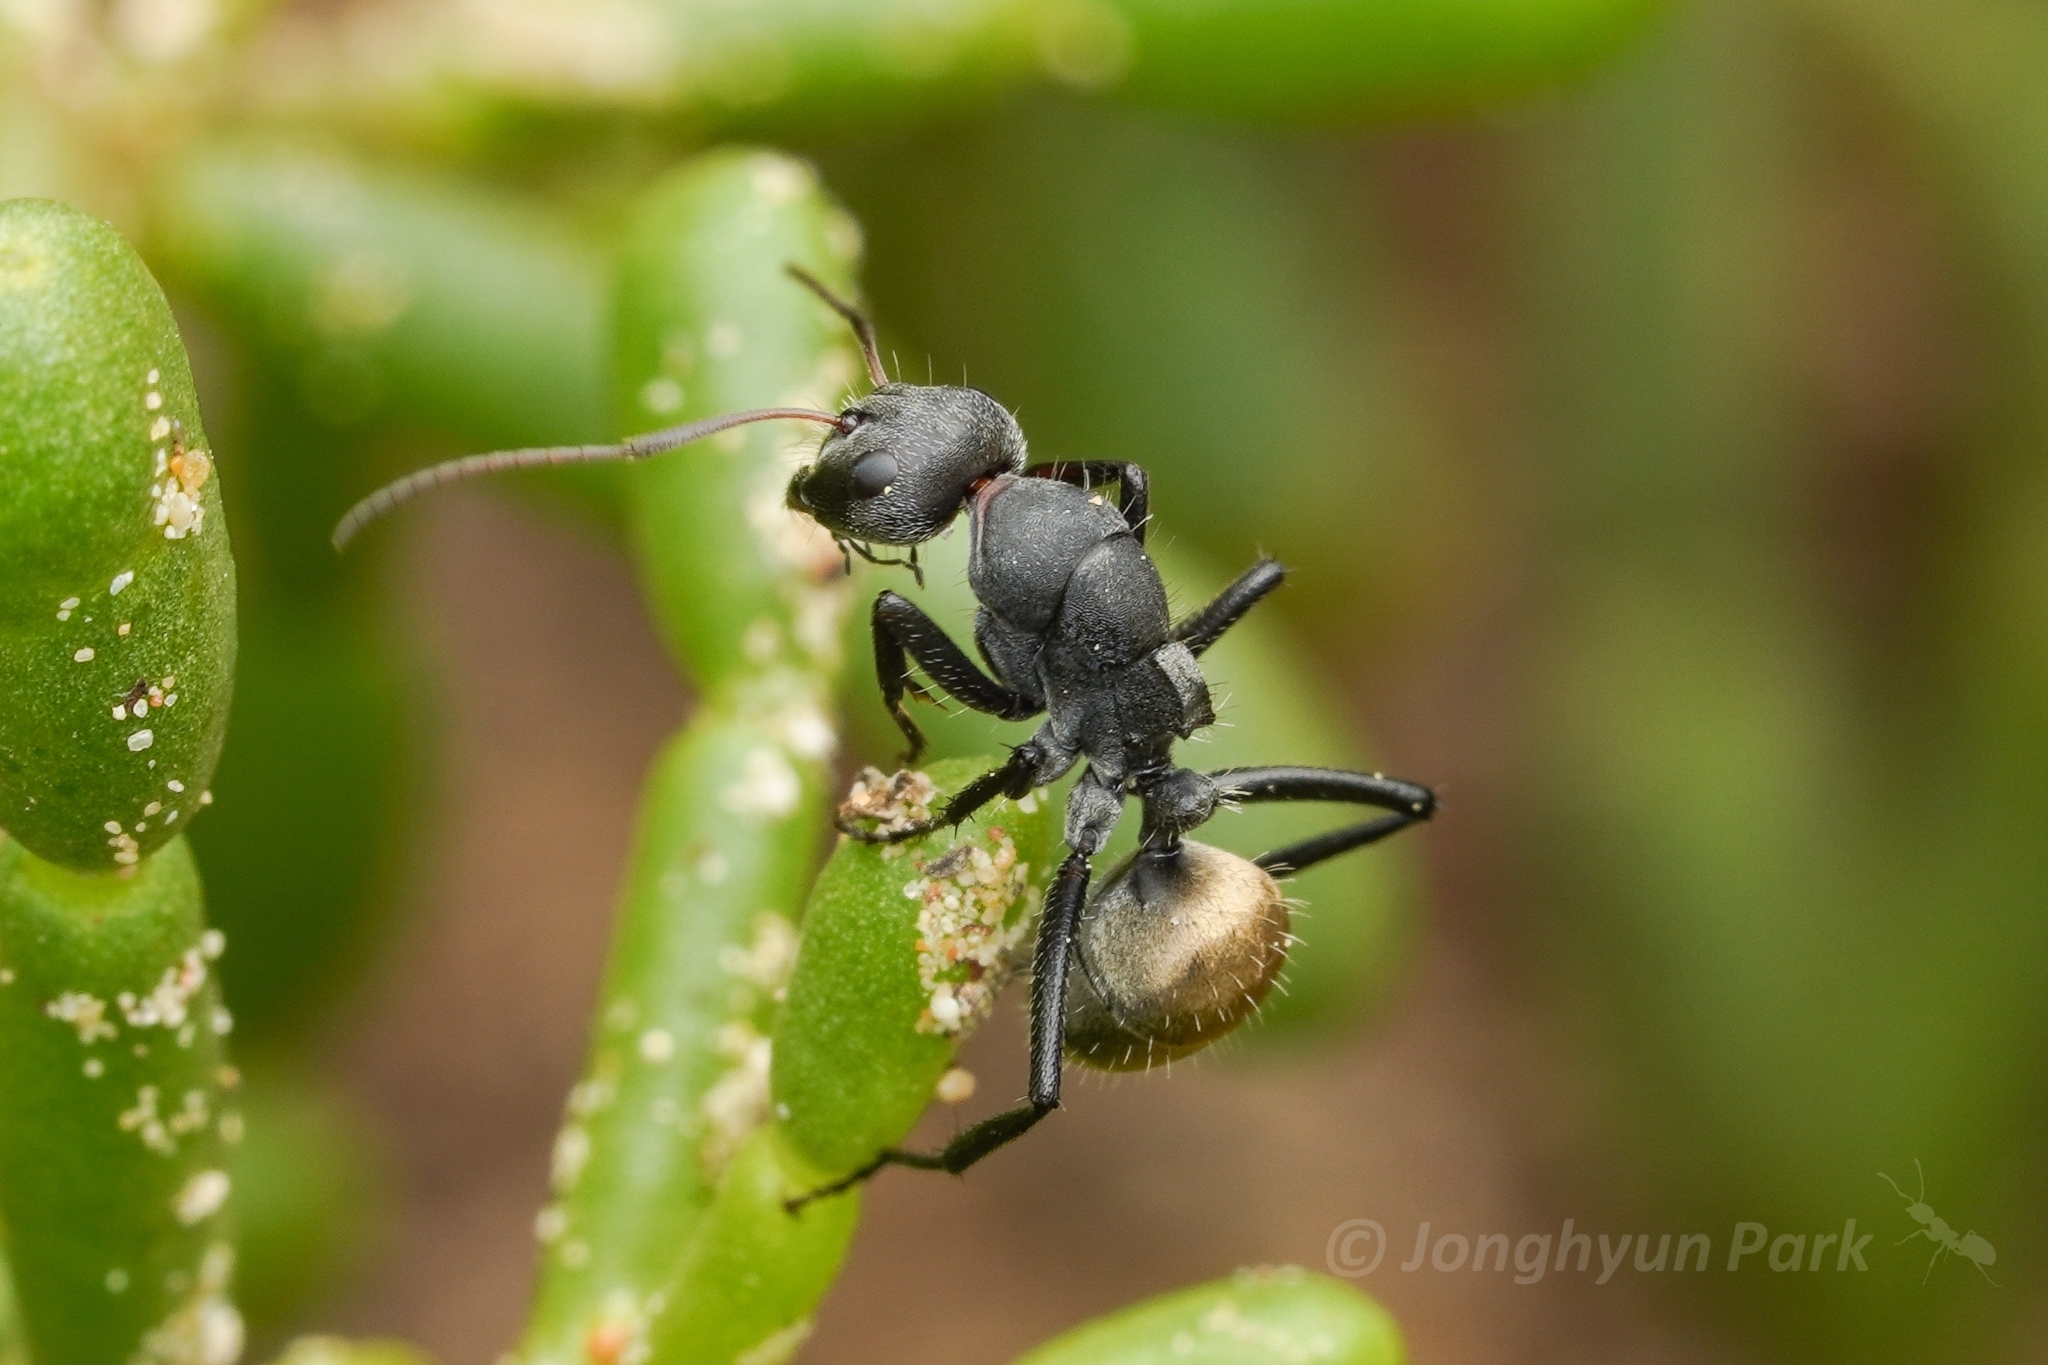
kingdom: Animalia
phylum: Arthropoda
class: Insecta
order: Hymenoptera
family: Formicidae
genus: Camponotus
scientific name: Camponotus sericeus
